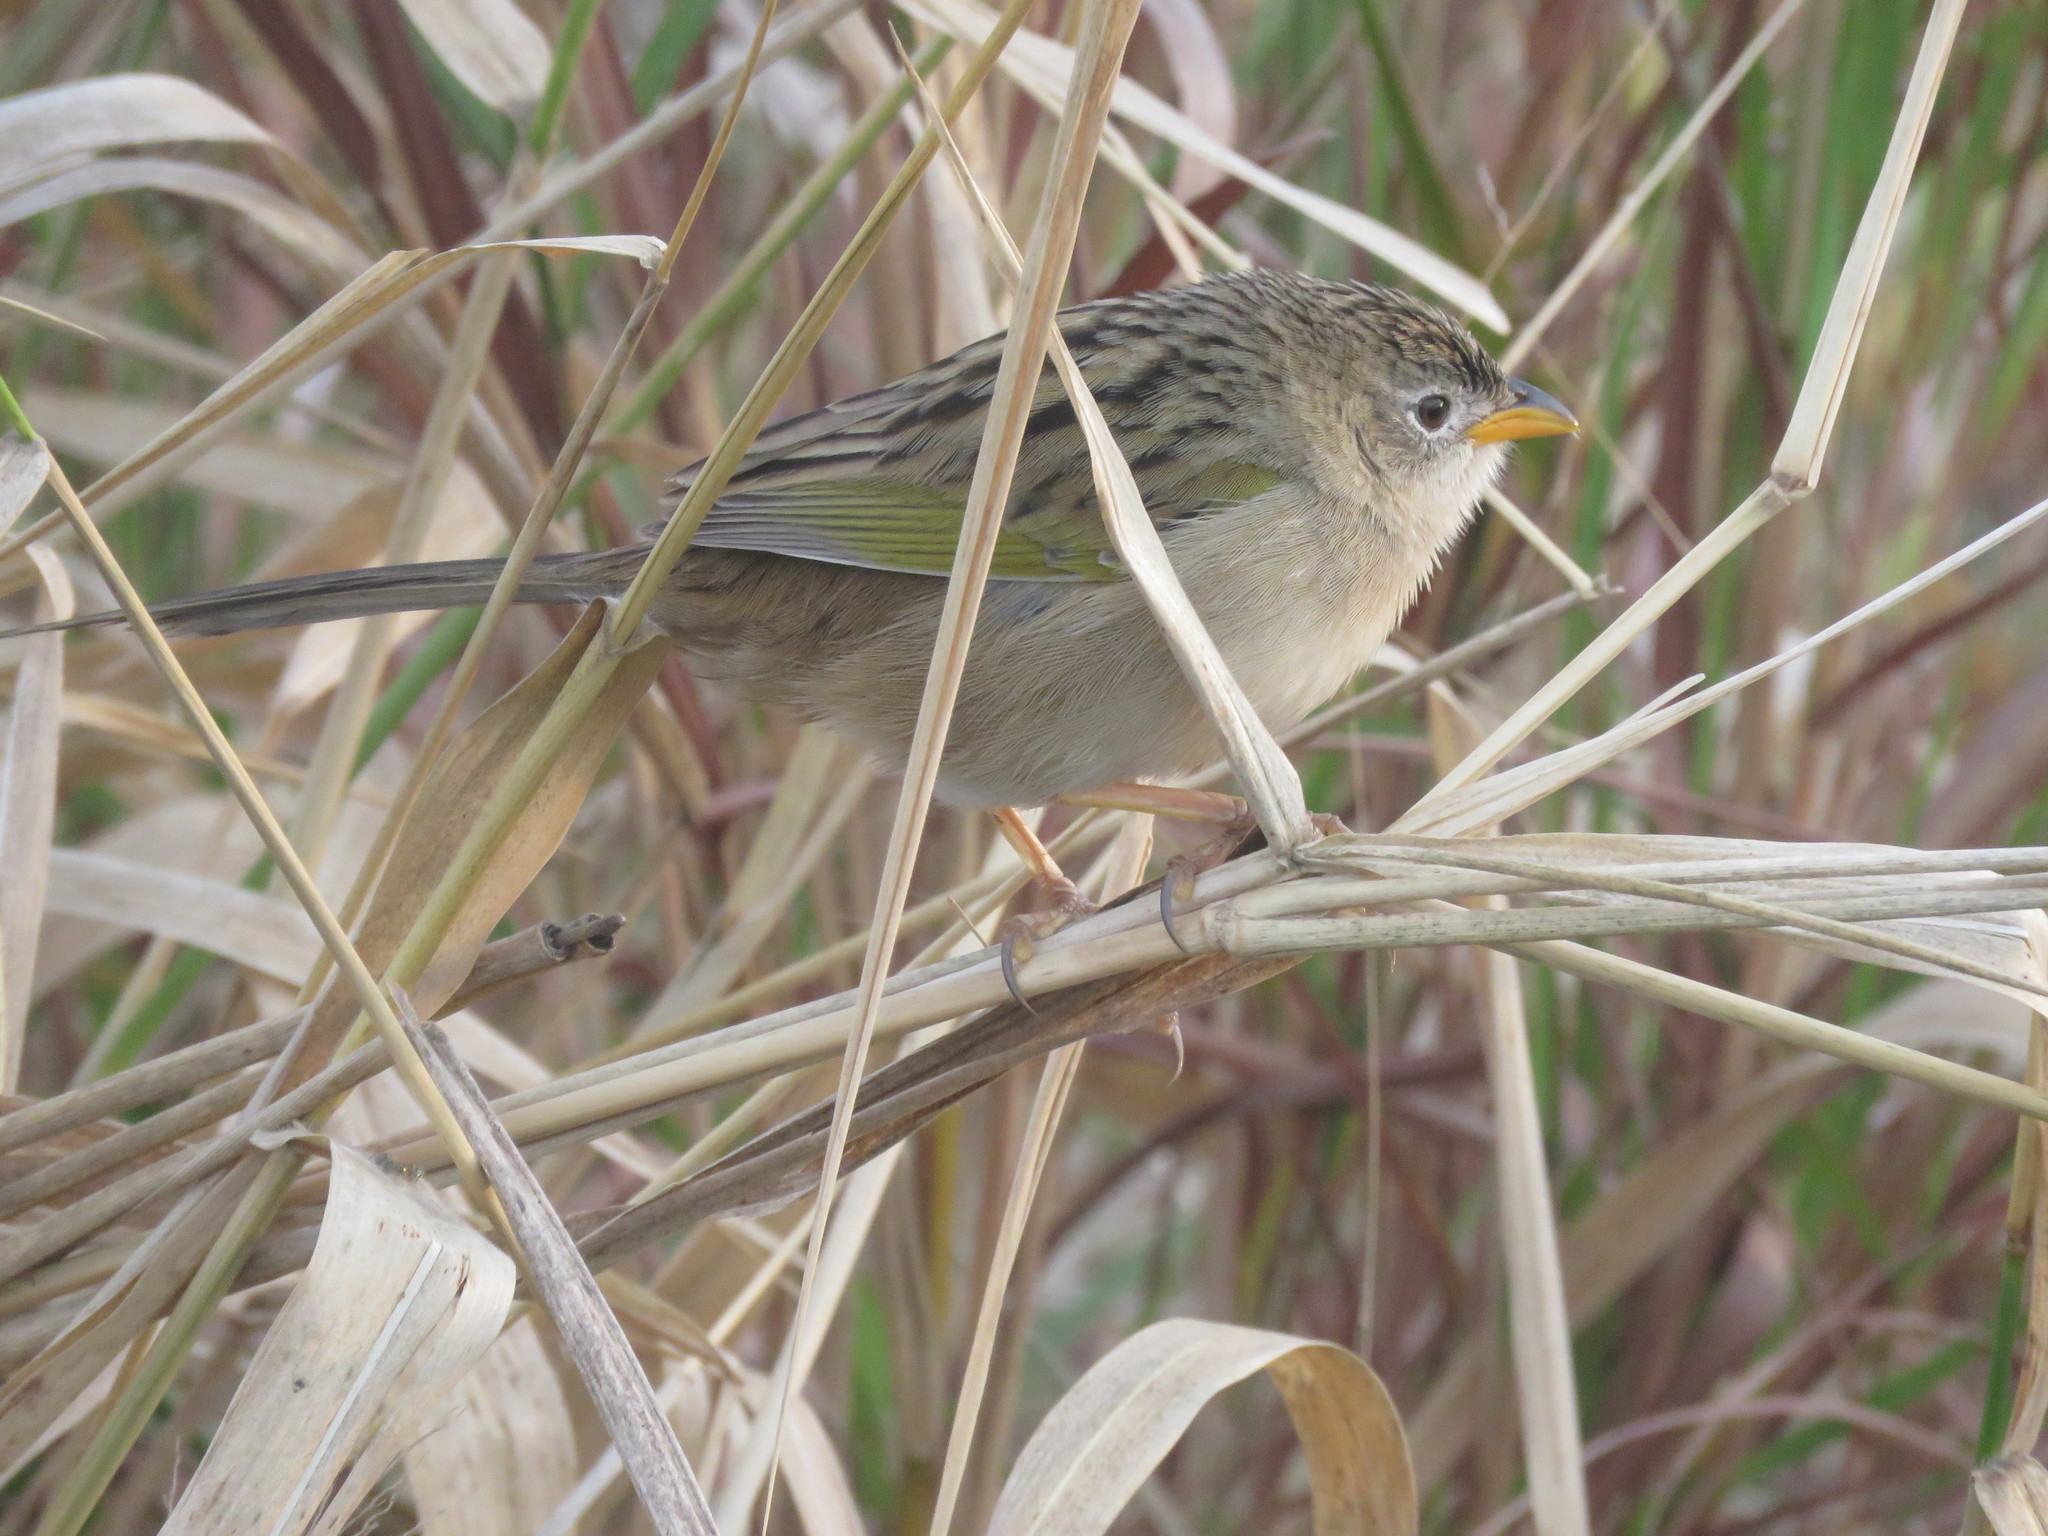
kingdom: Animalia
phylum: Chordata
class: Aves
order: Passeriformes
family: Thraupidae
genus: Emberizoides
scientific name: Emberizoides ypiranganus
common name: Lesser grass finch
